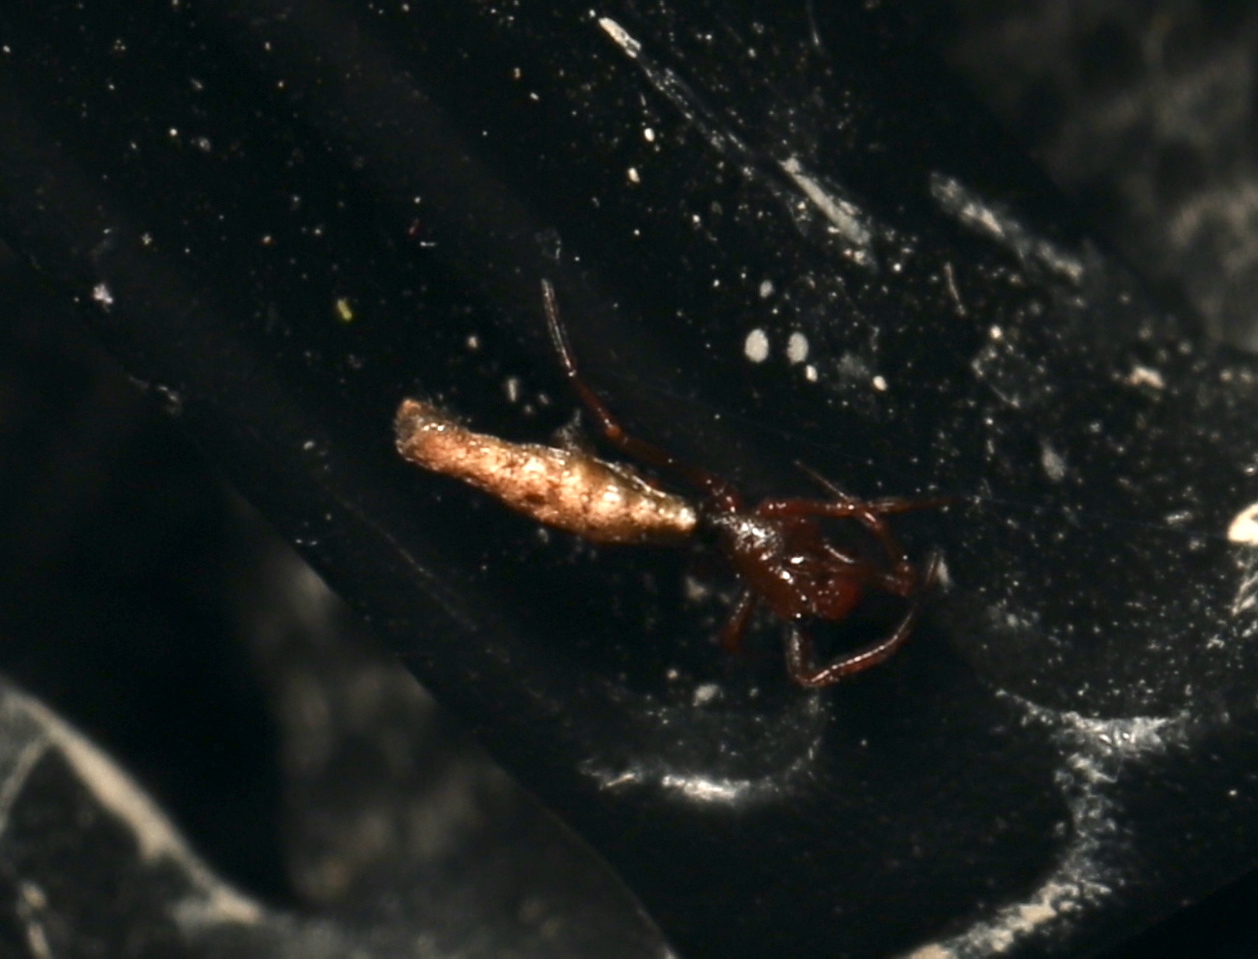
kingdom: Animalia
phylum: Arthropoda
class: Arachnida
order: Araneae
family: Araneidae
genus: Micrathena
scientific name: Micrathena gracilis
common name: Orb weavers
